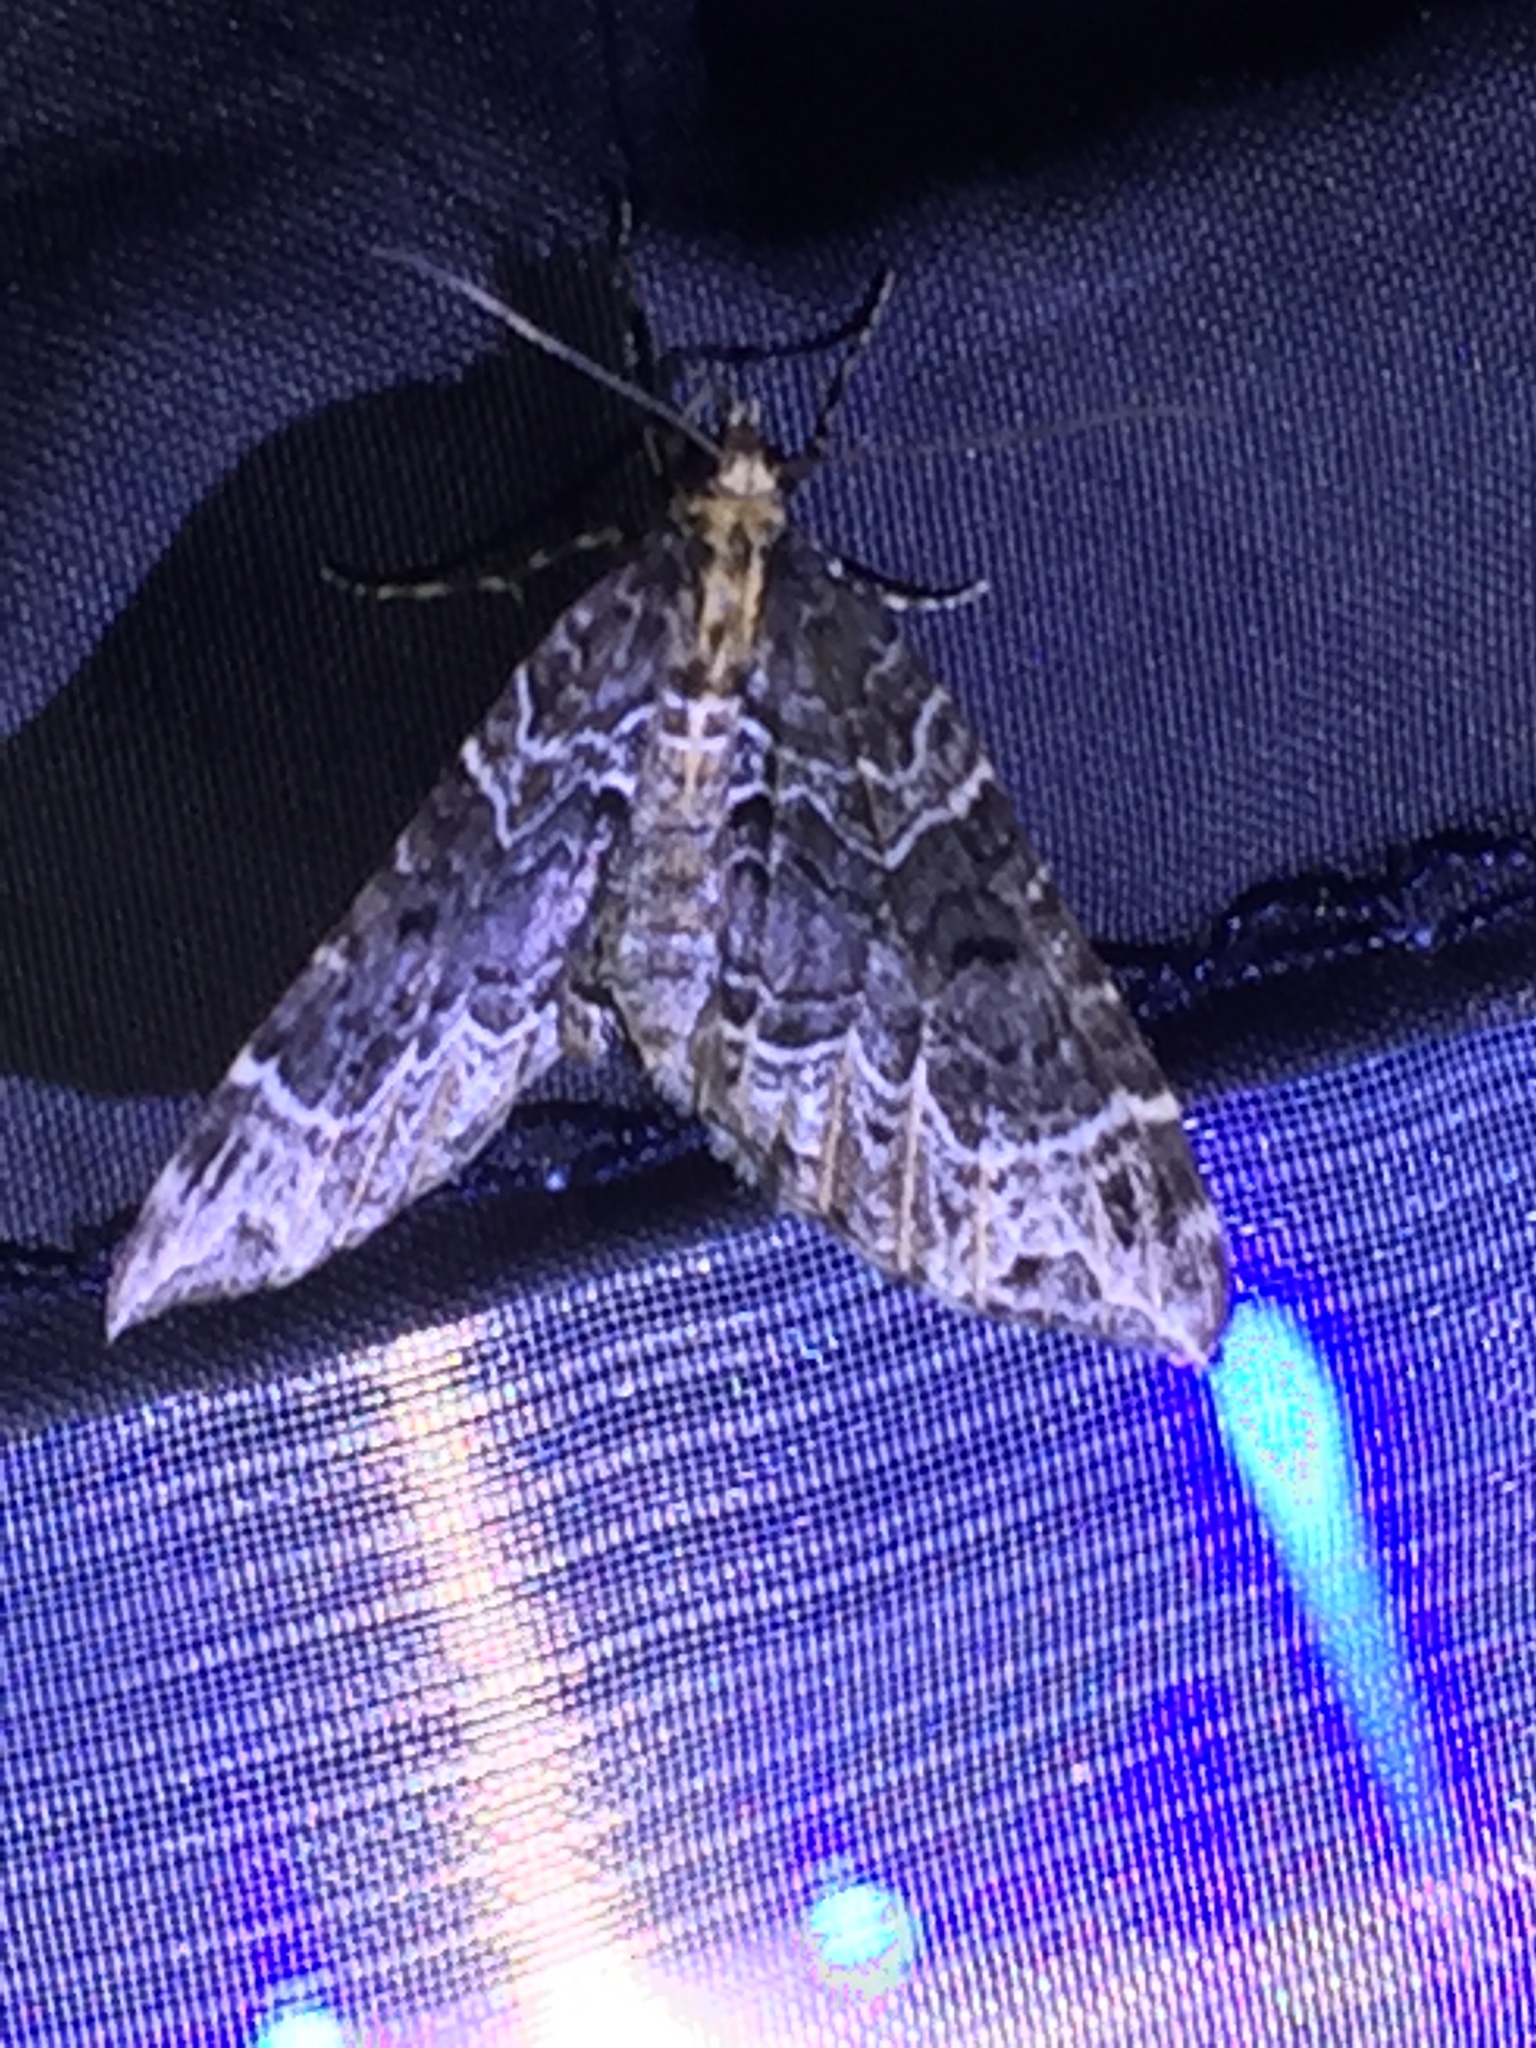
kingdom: Animalia
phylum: Arthropoda
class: Insecta
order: Lepidoptera
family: Geometridae
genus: Ecliptopera
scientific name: Ecliptopera silaceata
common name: Small phoenix
